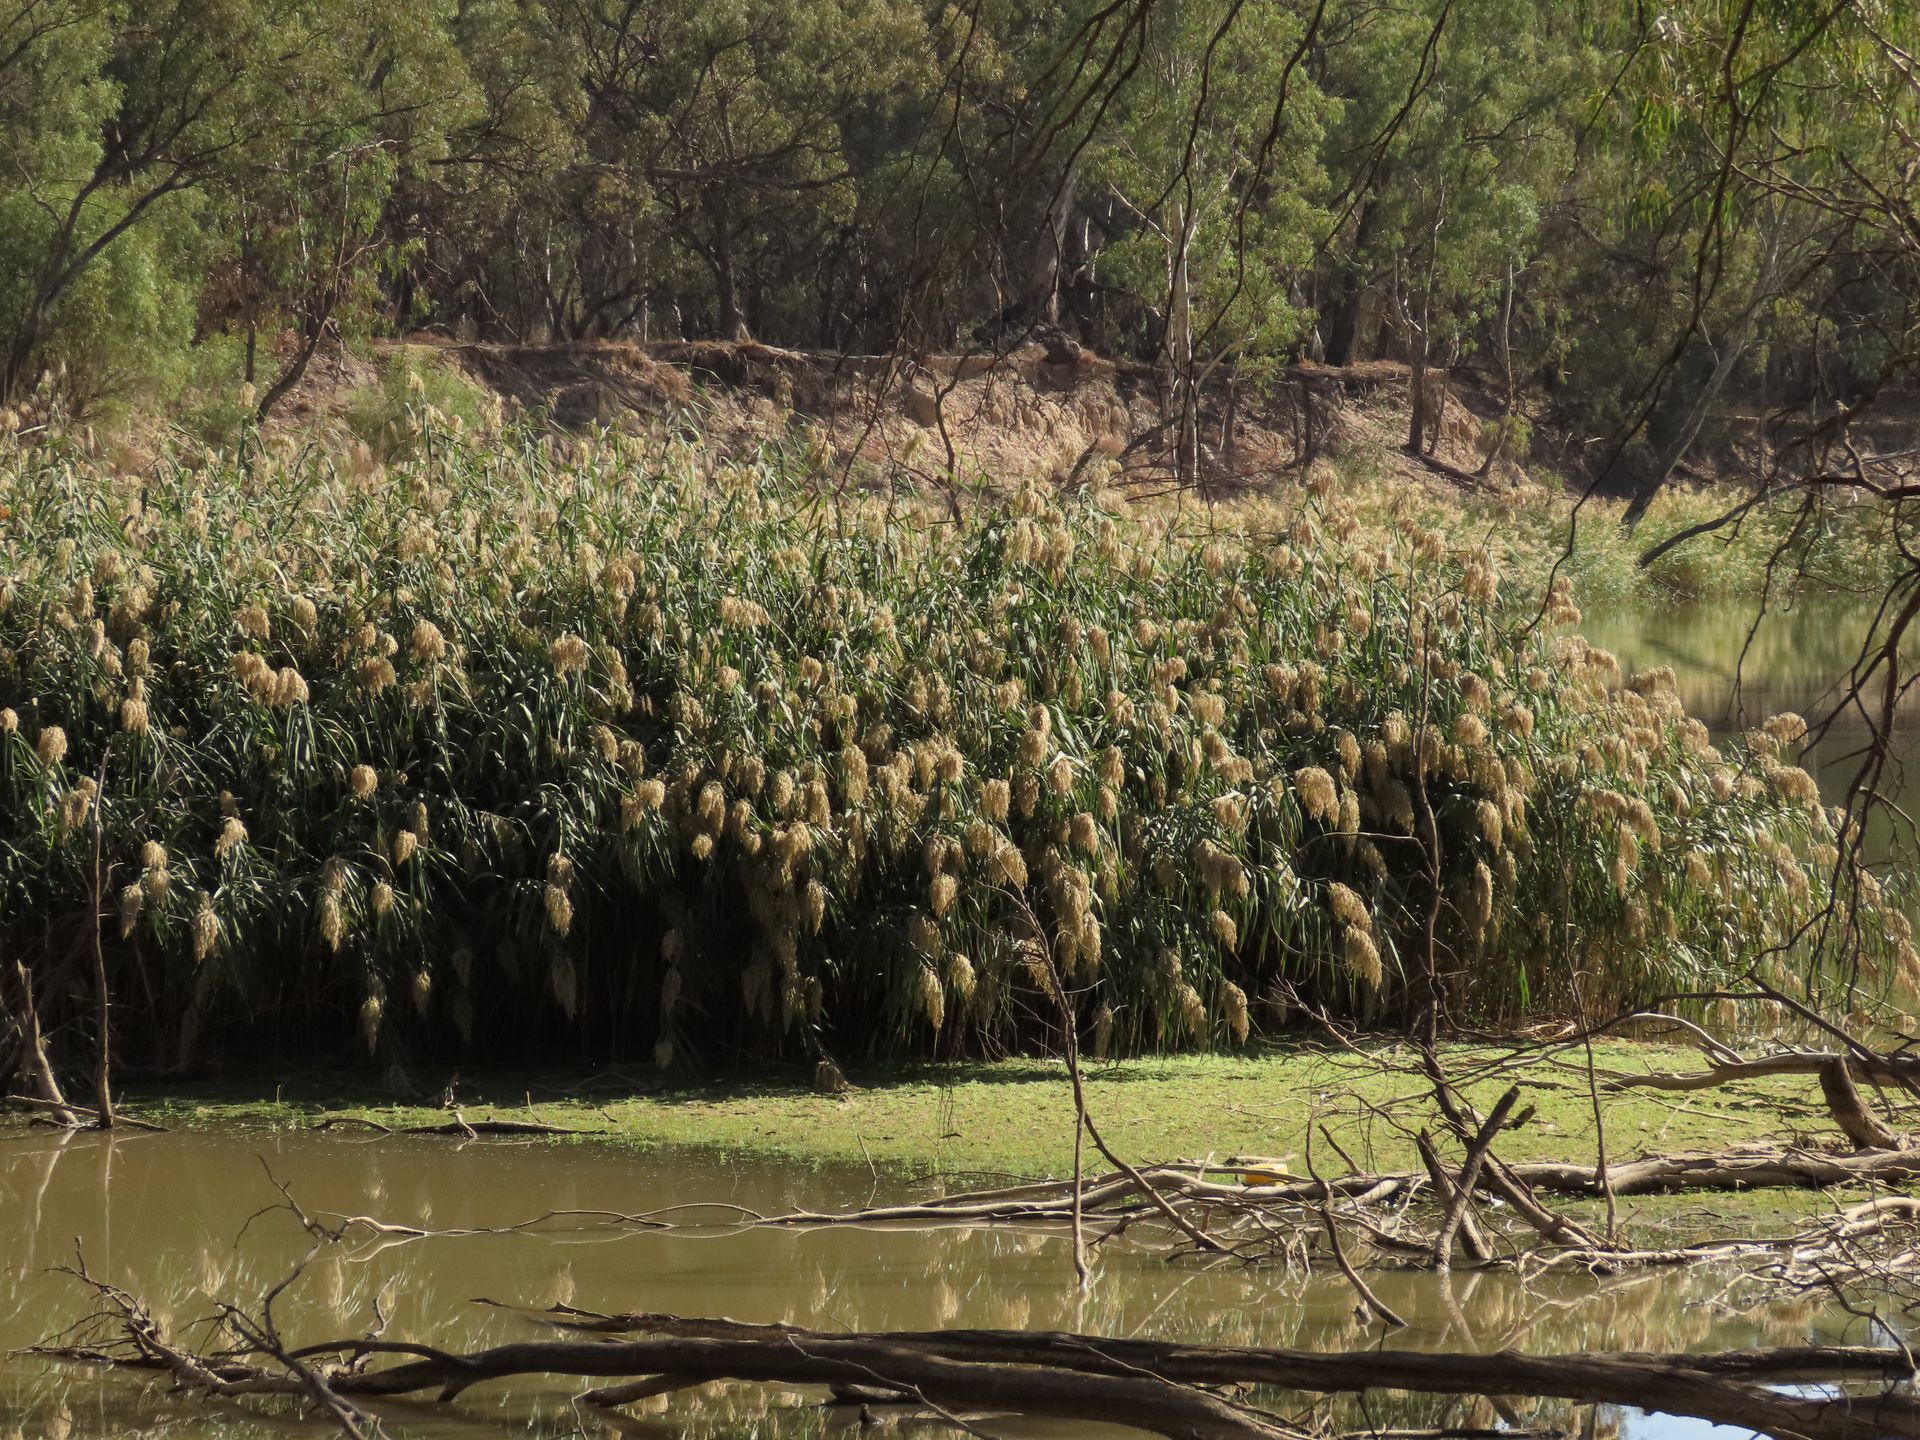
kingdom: Plantae
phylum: Tracheophyta
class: Liliopsida
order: Poales
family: Poaceae
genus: Phragmites
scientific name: Phragmites australis
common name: Common reed
